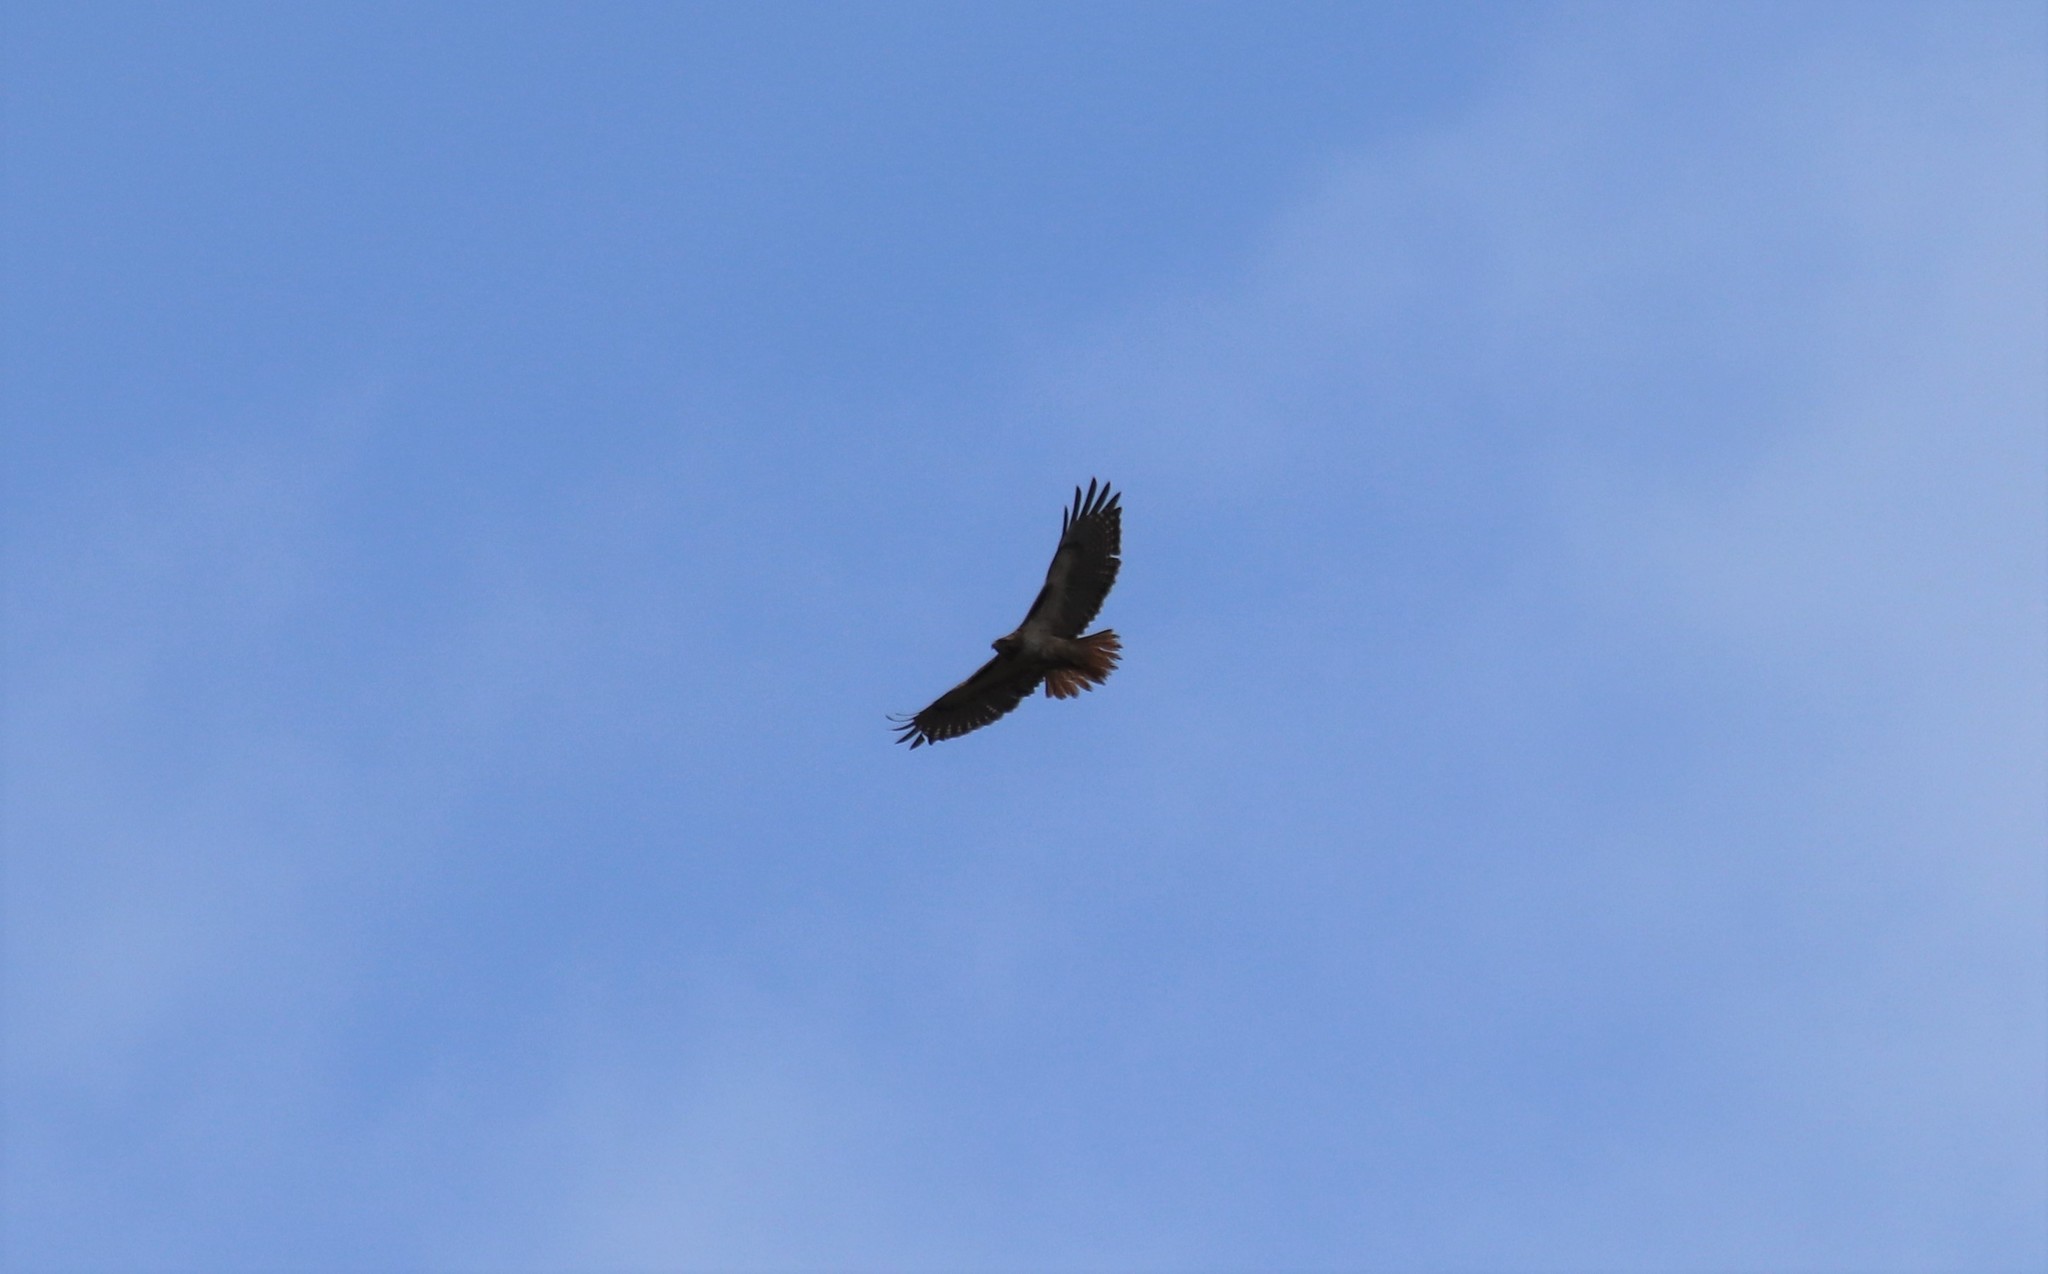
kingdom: Animalia
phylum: Chordata
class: Aves
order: Accipitriformes
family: Accipitridae
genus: Buteo
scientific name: Buteo jamaicensis
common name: Red-tailed hawk
